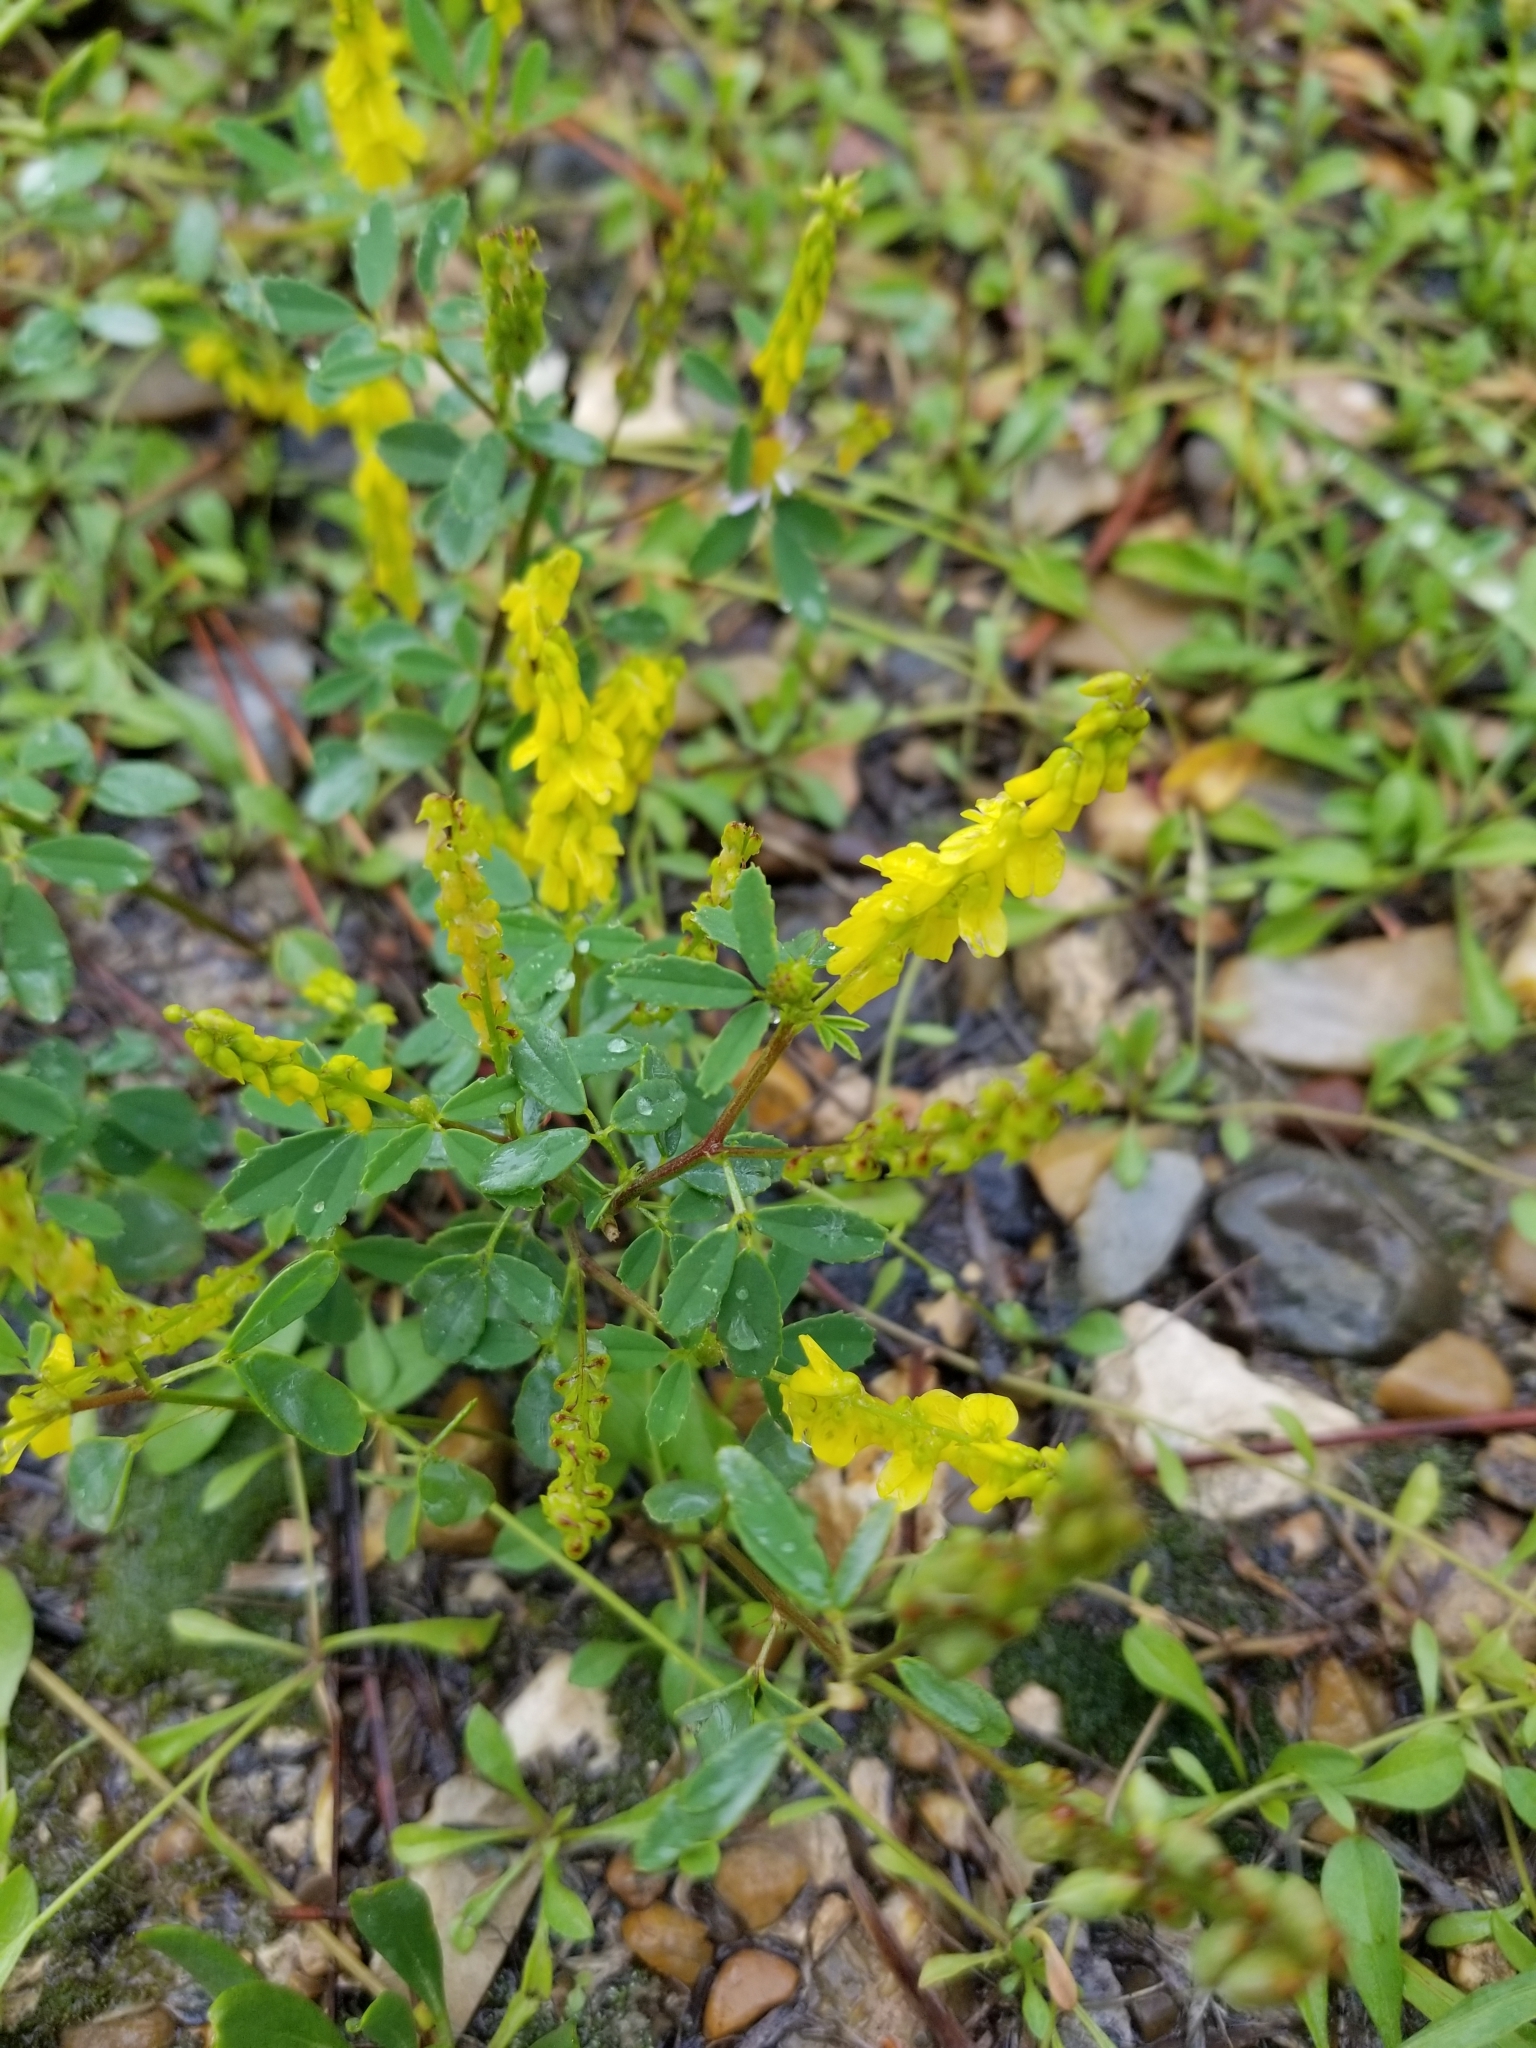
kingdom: Plantae
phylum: Tracheophyta
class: Magnoliopsida
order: Fabales
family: Fabaceae
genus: Melilotus
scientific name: Melilotus officinalis
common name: Sweetclover
